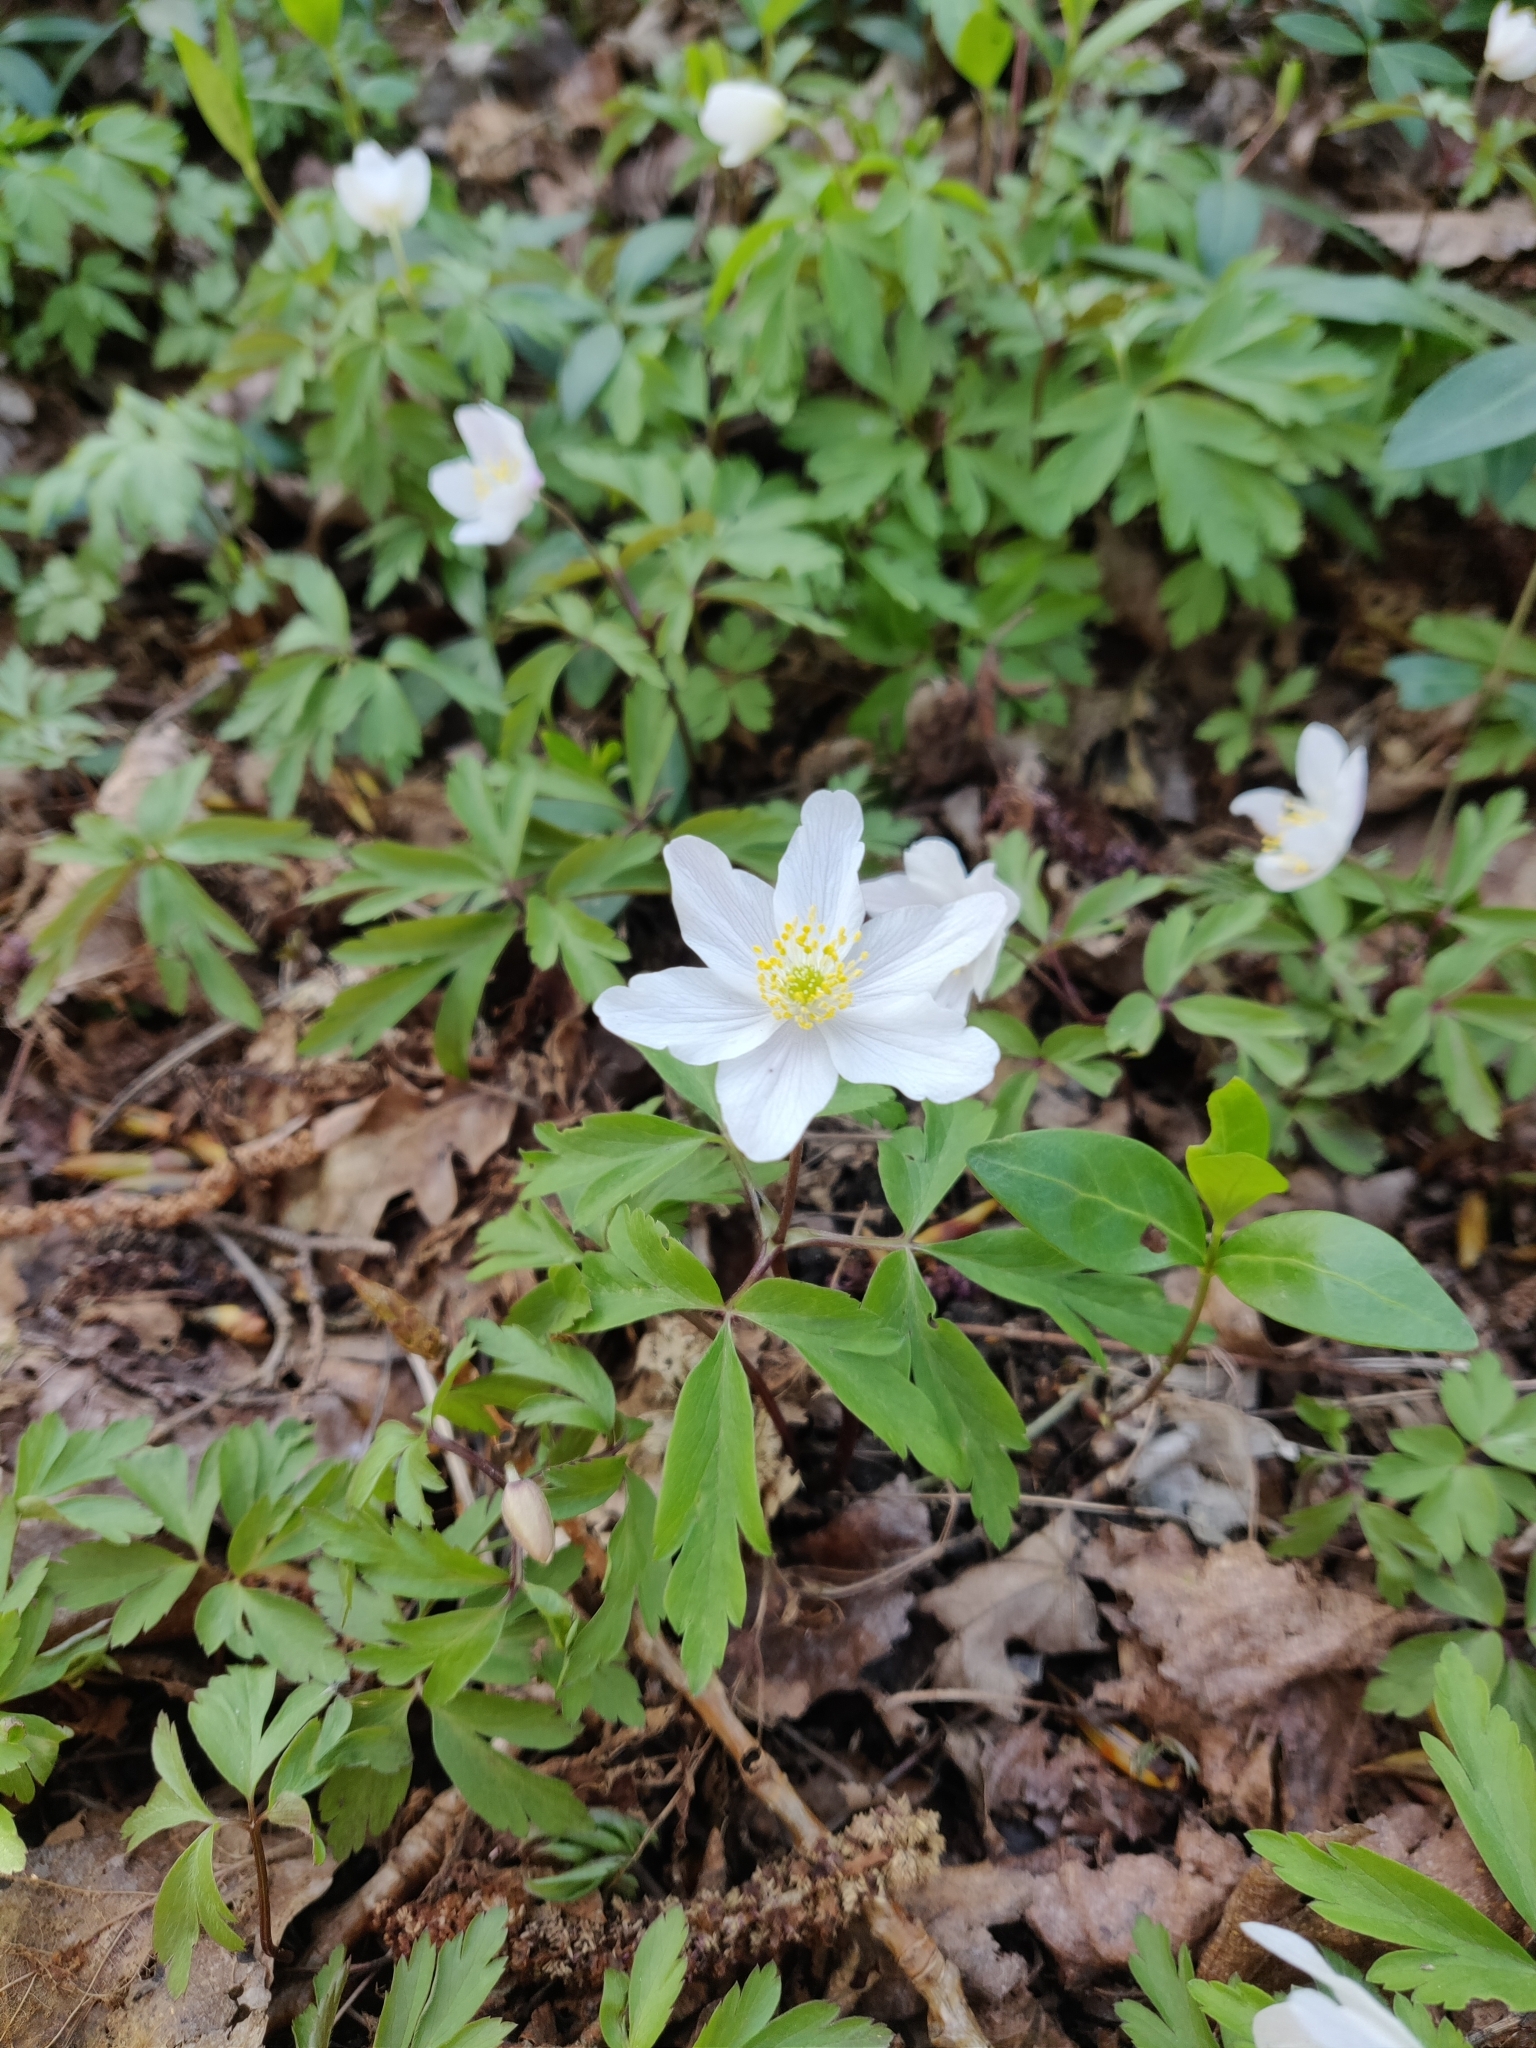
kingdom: Plantae
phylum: Tracheophyta
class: Magnoliopsida
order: Ranunculales
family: Ranunculaceae
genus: Anemone
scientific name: Anemone nemorosa
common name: Wood anemone
